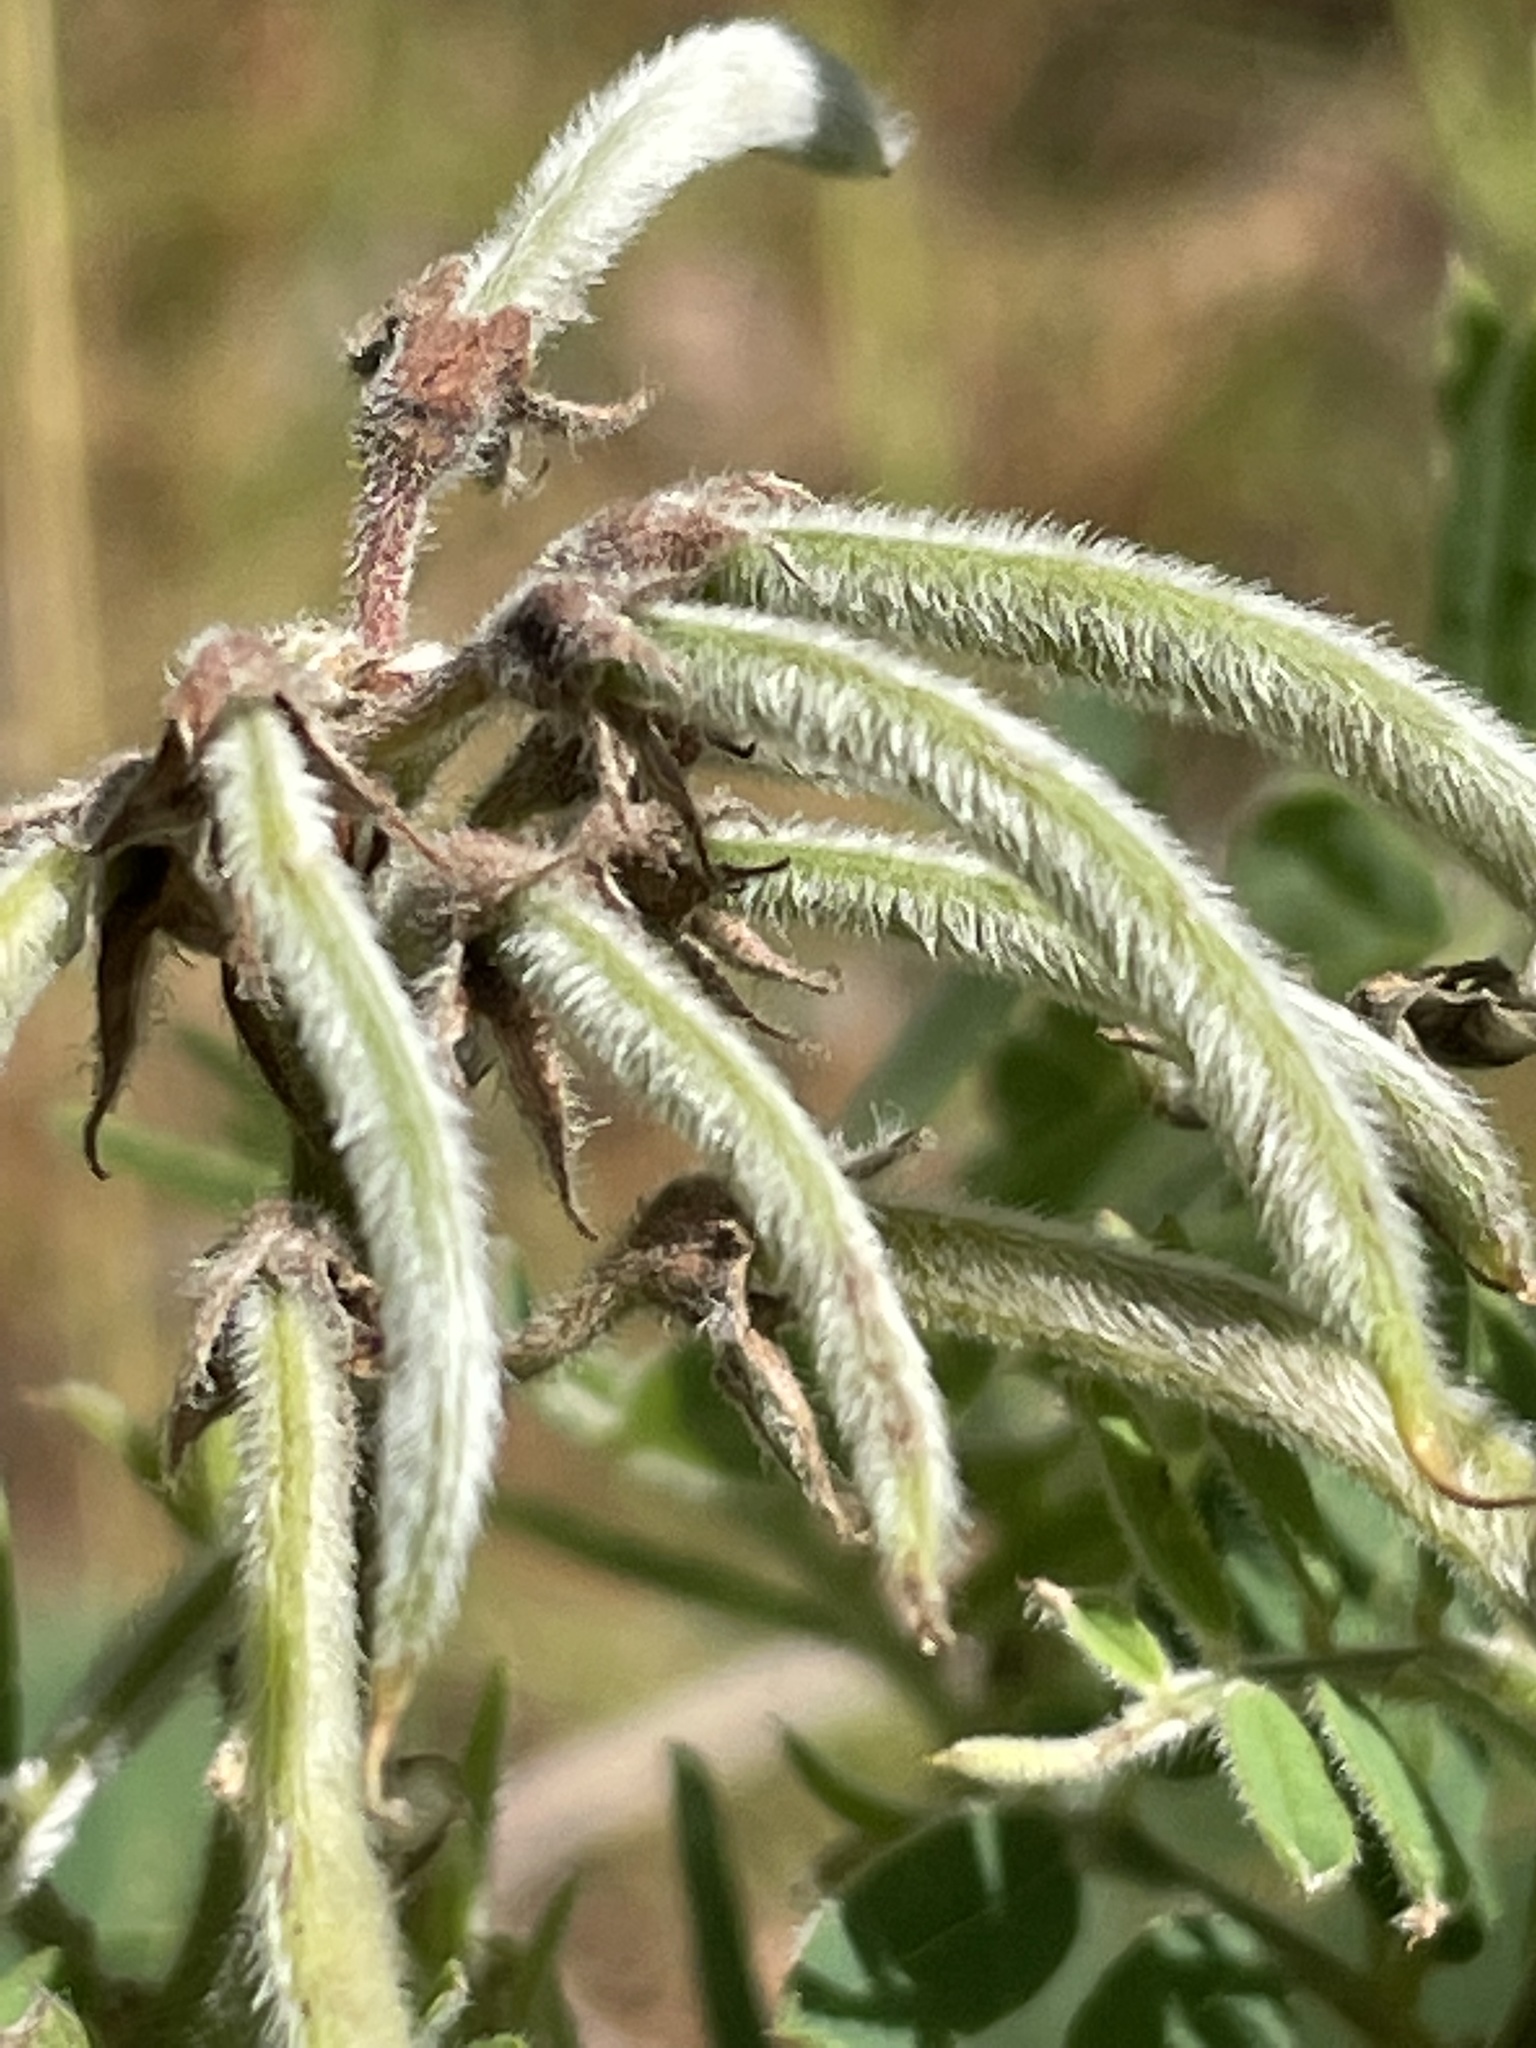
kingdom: Plantae
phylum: Tracheophyta
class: Magnoliopsida
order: Fabales
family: Fabaceae
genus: Tephrosia
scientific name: Tephrosia virginiana
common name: Rabbit-pea
